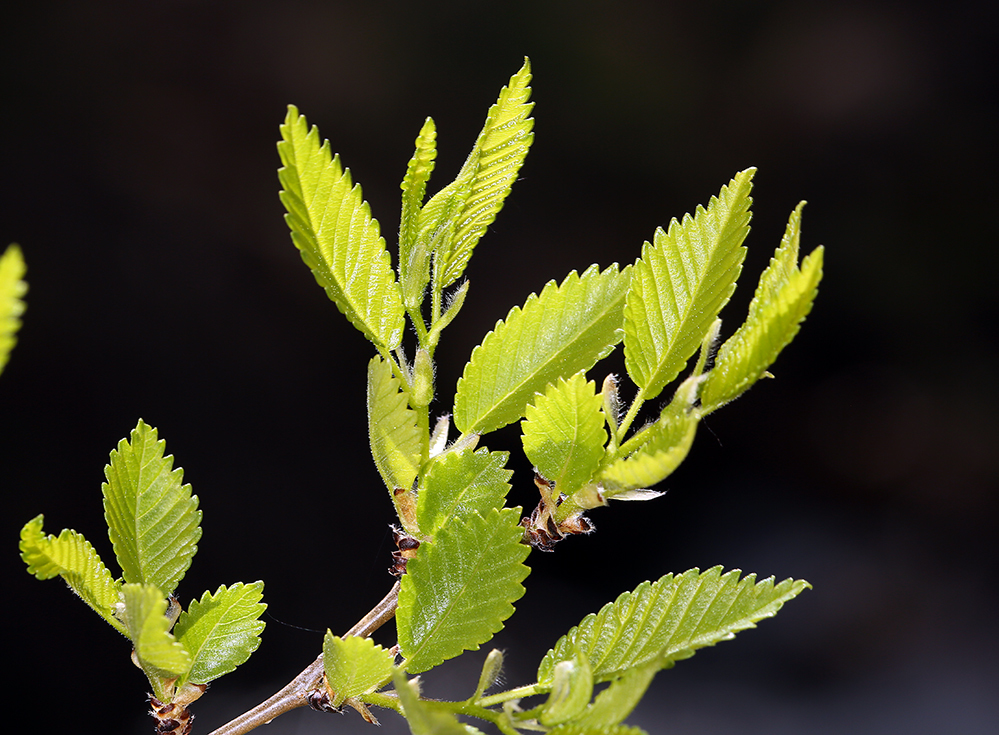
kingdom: Plantae
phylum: Tracheophyta
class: Magnoliopsida
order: Rosales
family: Ulmaceae
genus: Ulmus
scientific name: Ulmus pumila
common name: Siberian elm
